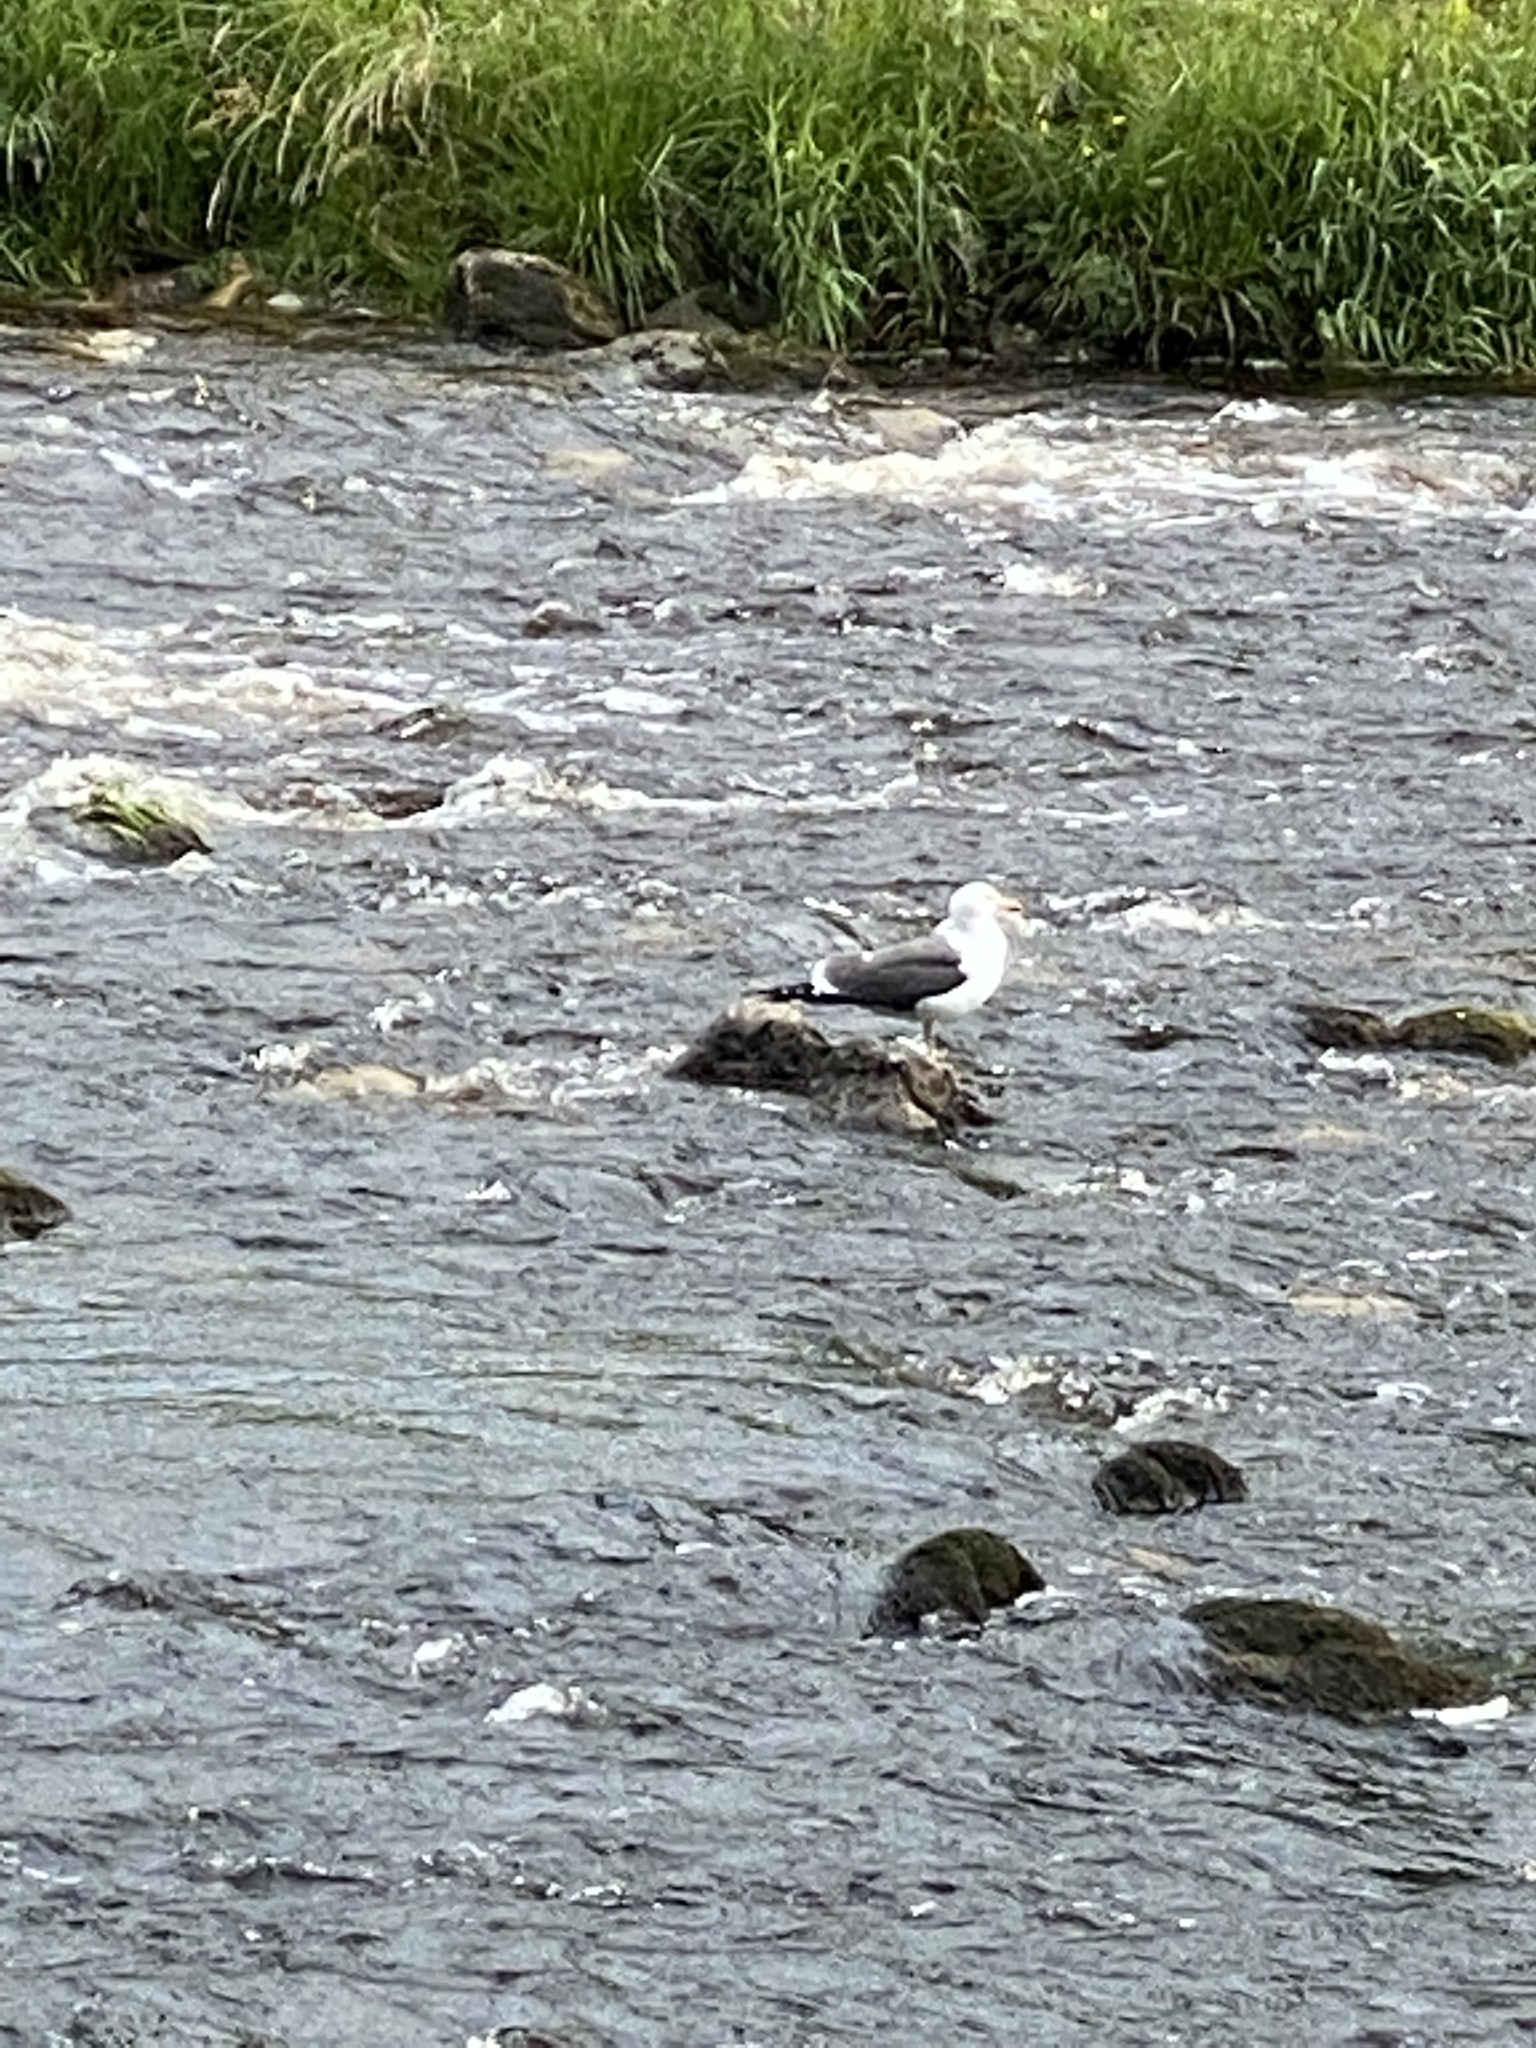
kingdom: Animalia
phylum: Chordata
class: Aves
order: Charadriiformes
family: Laridae
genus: Larus
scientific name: Larus fuscus
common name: Lesser black-backed gull
